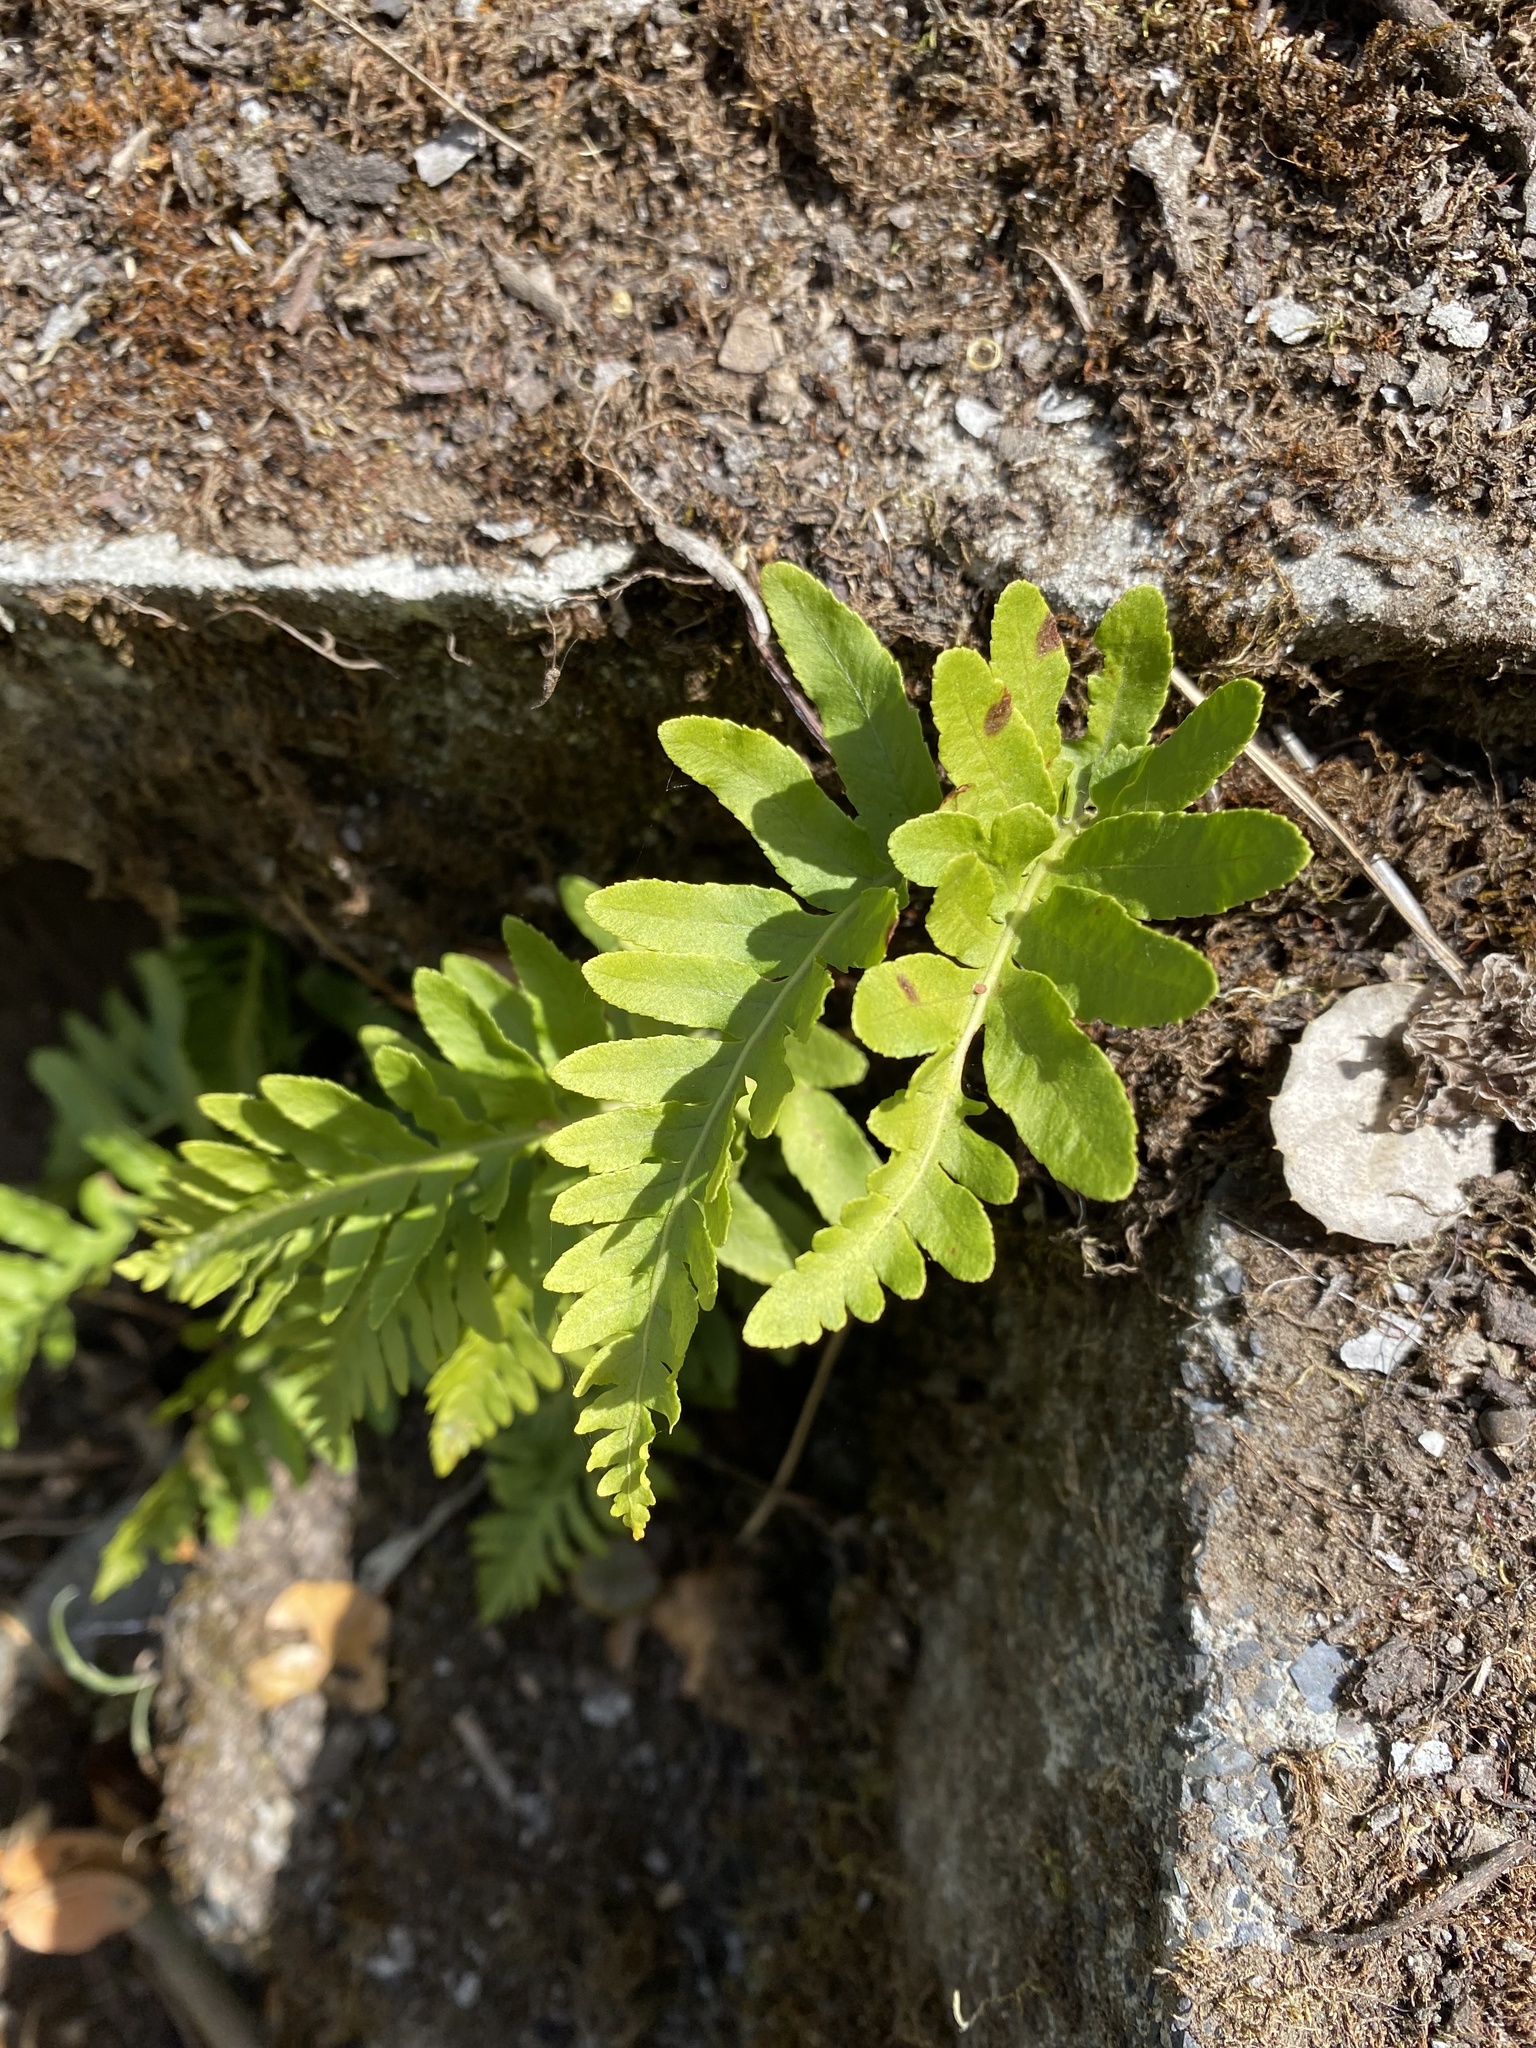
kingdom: Plantae
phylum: Tracheophyta
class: Polypodiopsida
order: Polypodiales
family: Polypodiaceae
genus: Polypodium
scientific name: Polypodium californicum
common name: California polypody
